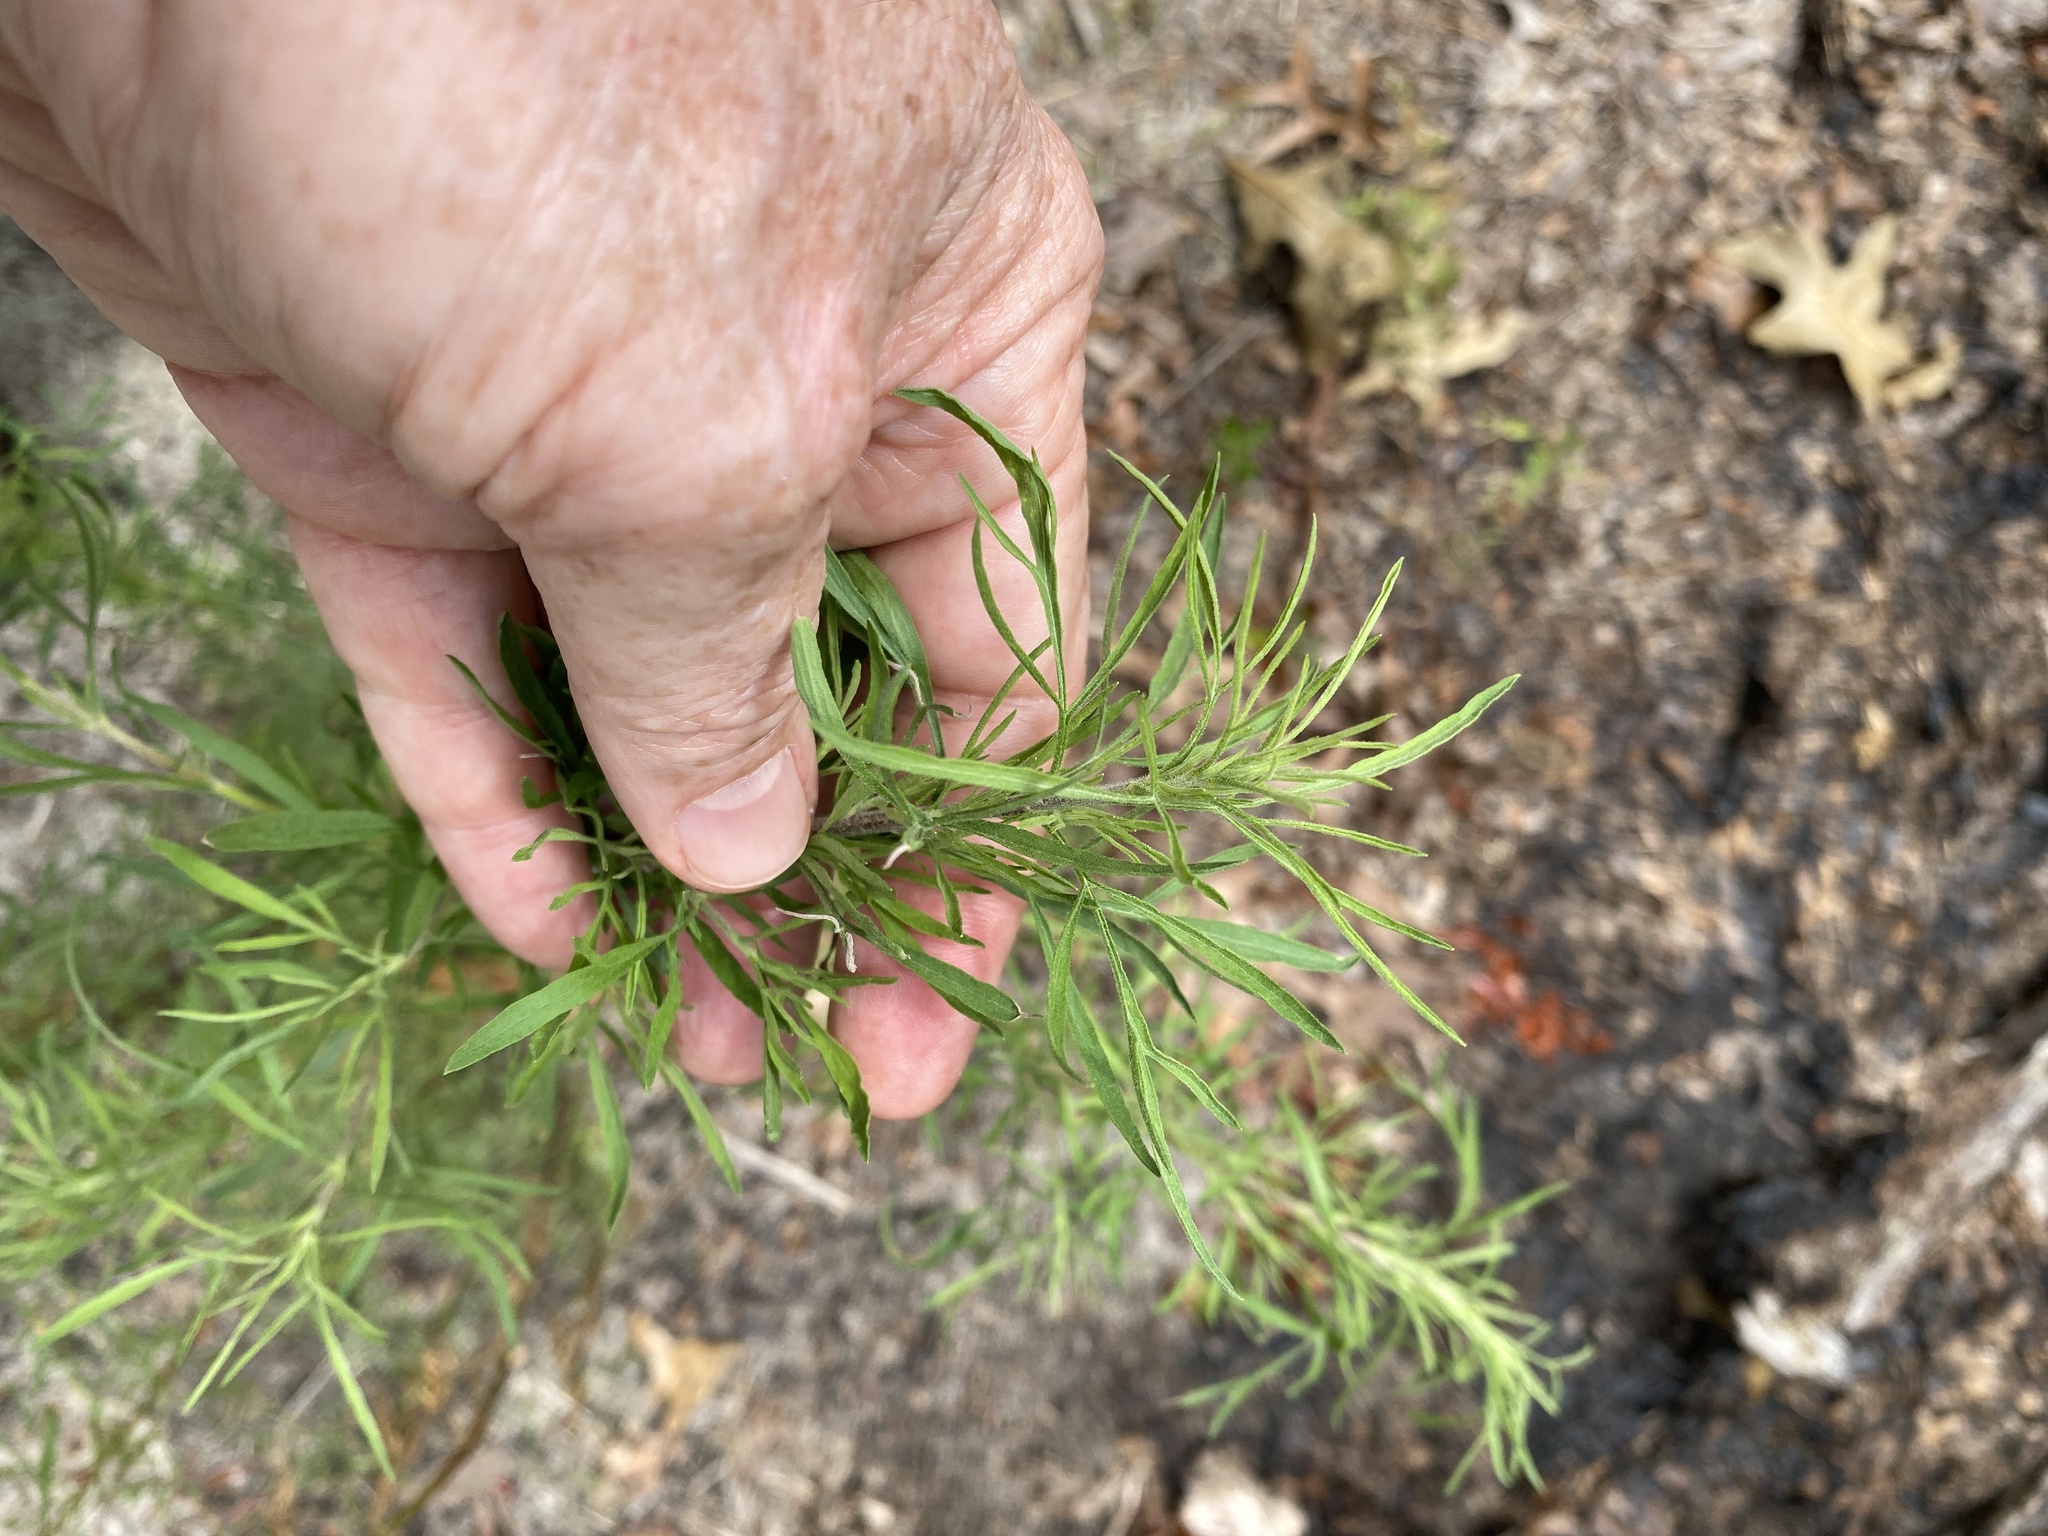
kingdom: Plantae
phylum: Tracheophyta
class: Magnoliopsida
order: Asterales
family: Asteraceae
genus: Eupatorium
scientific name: Eupatorium compositifolium
